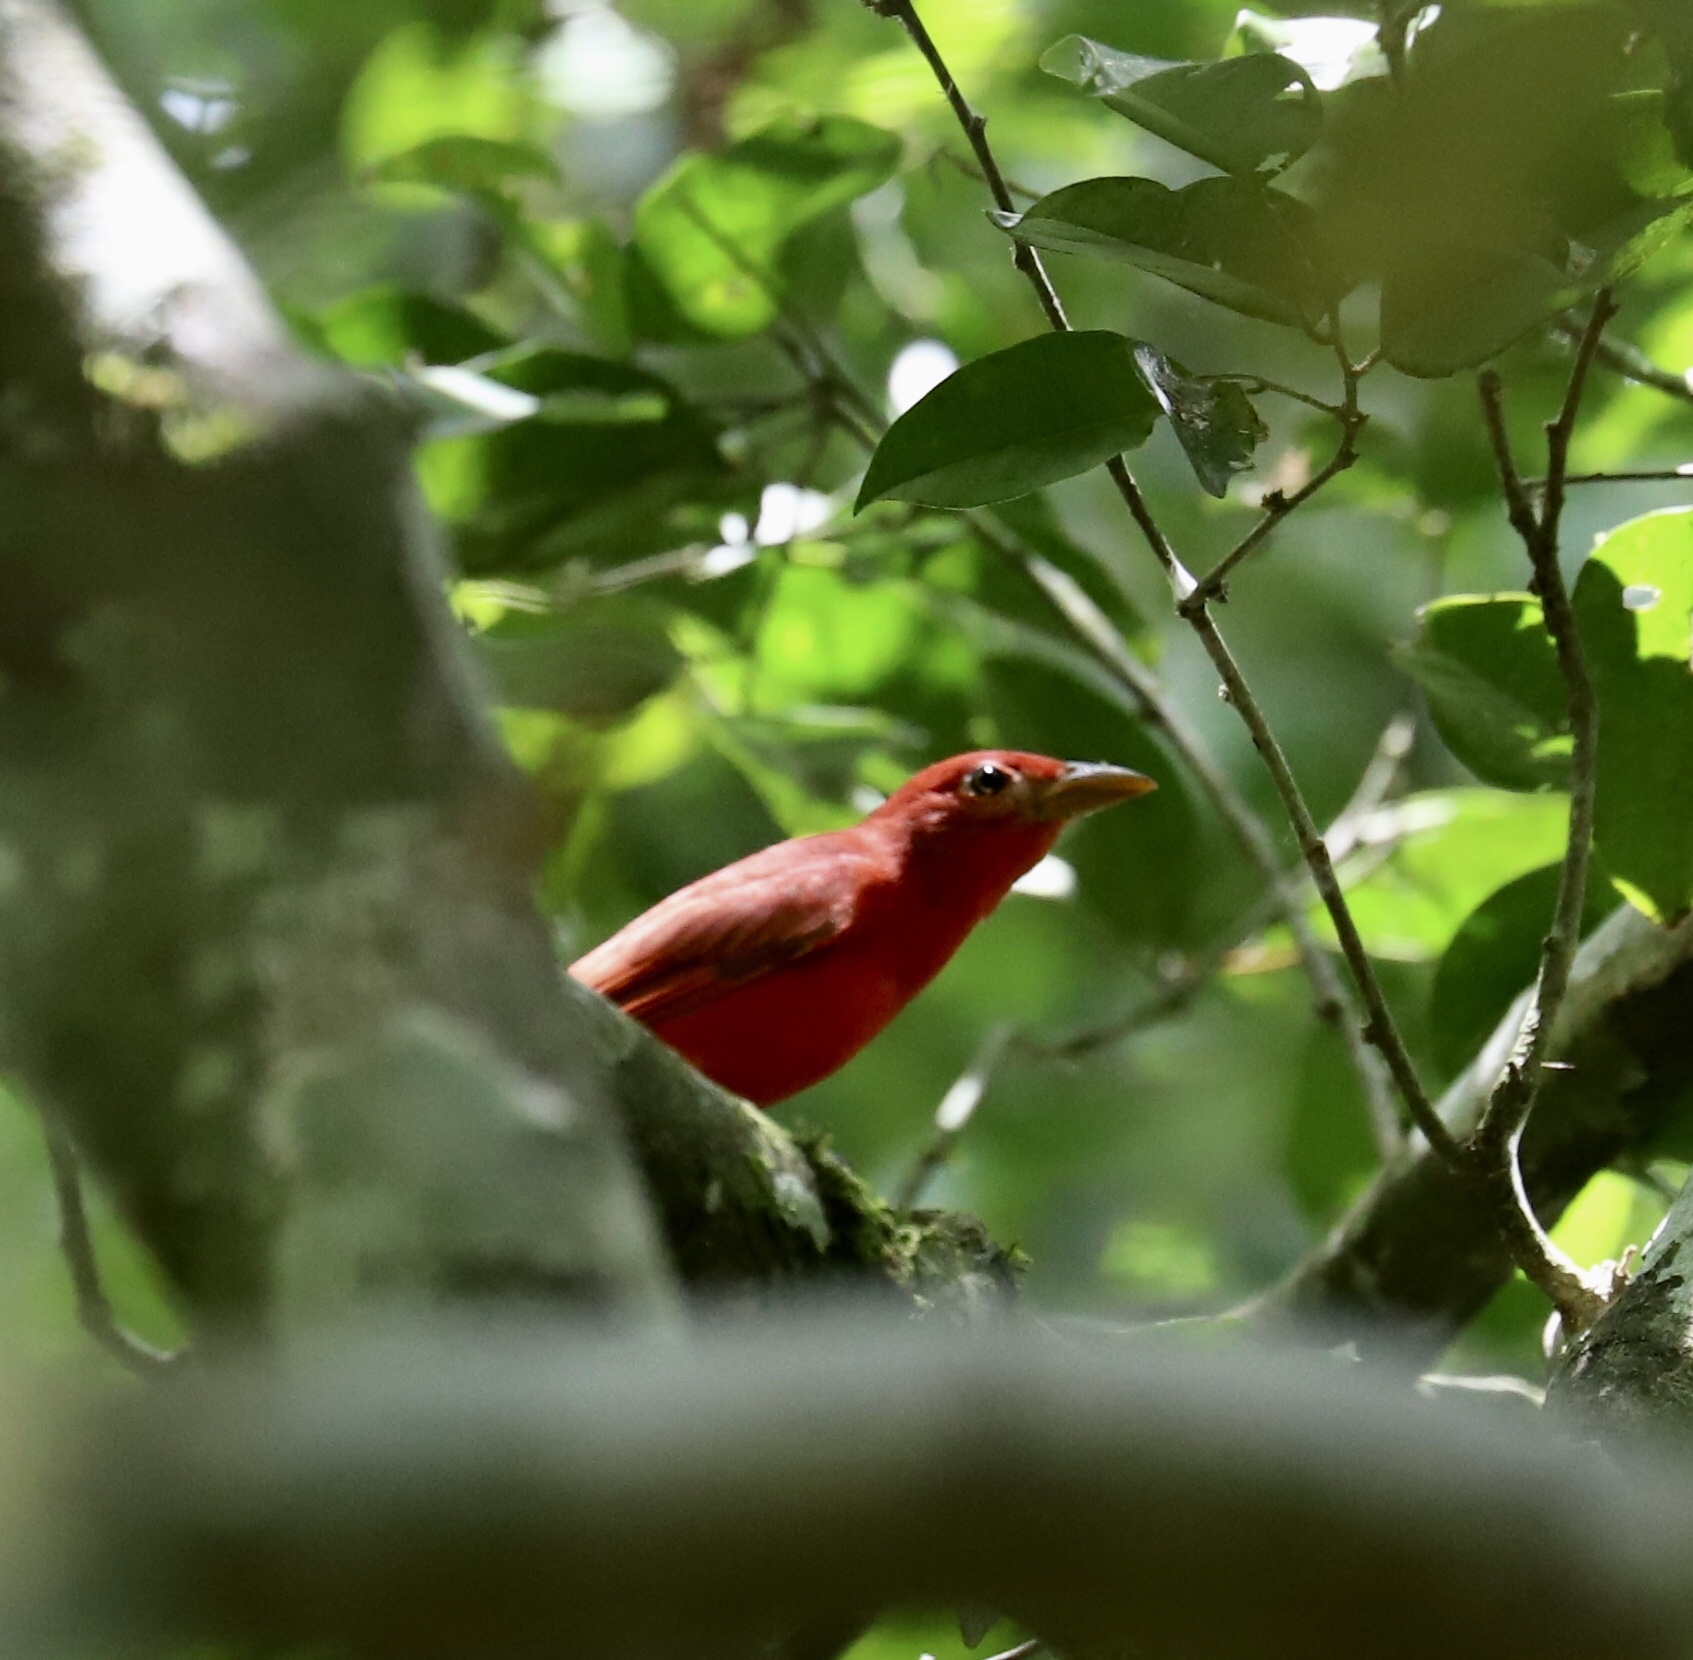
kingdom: Animalia
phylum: Chordata
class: Aves
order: Passeriformes
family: Cardinalidae
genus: Piranga
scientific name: Piranga rubra
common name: Summer tanager
